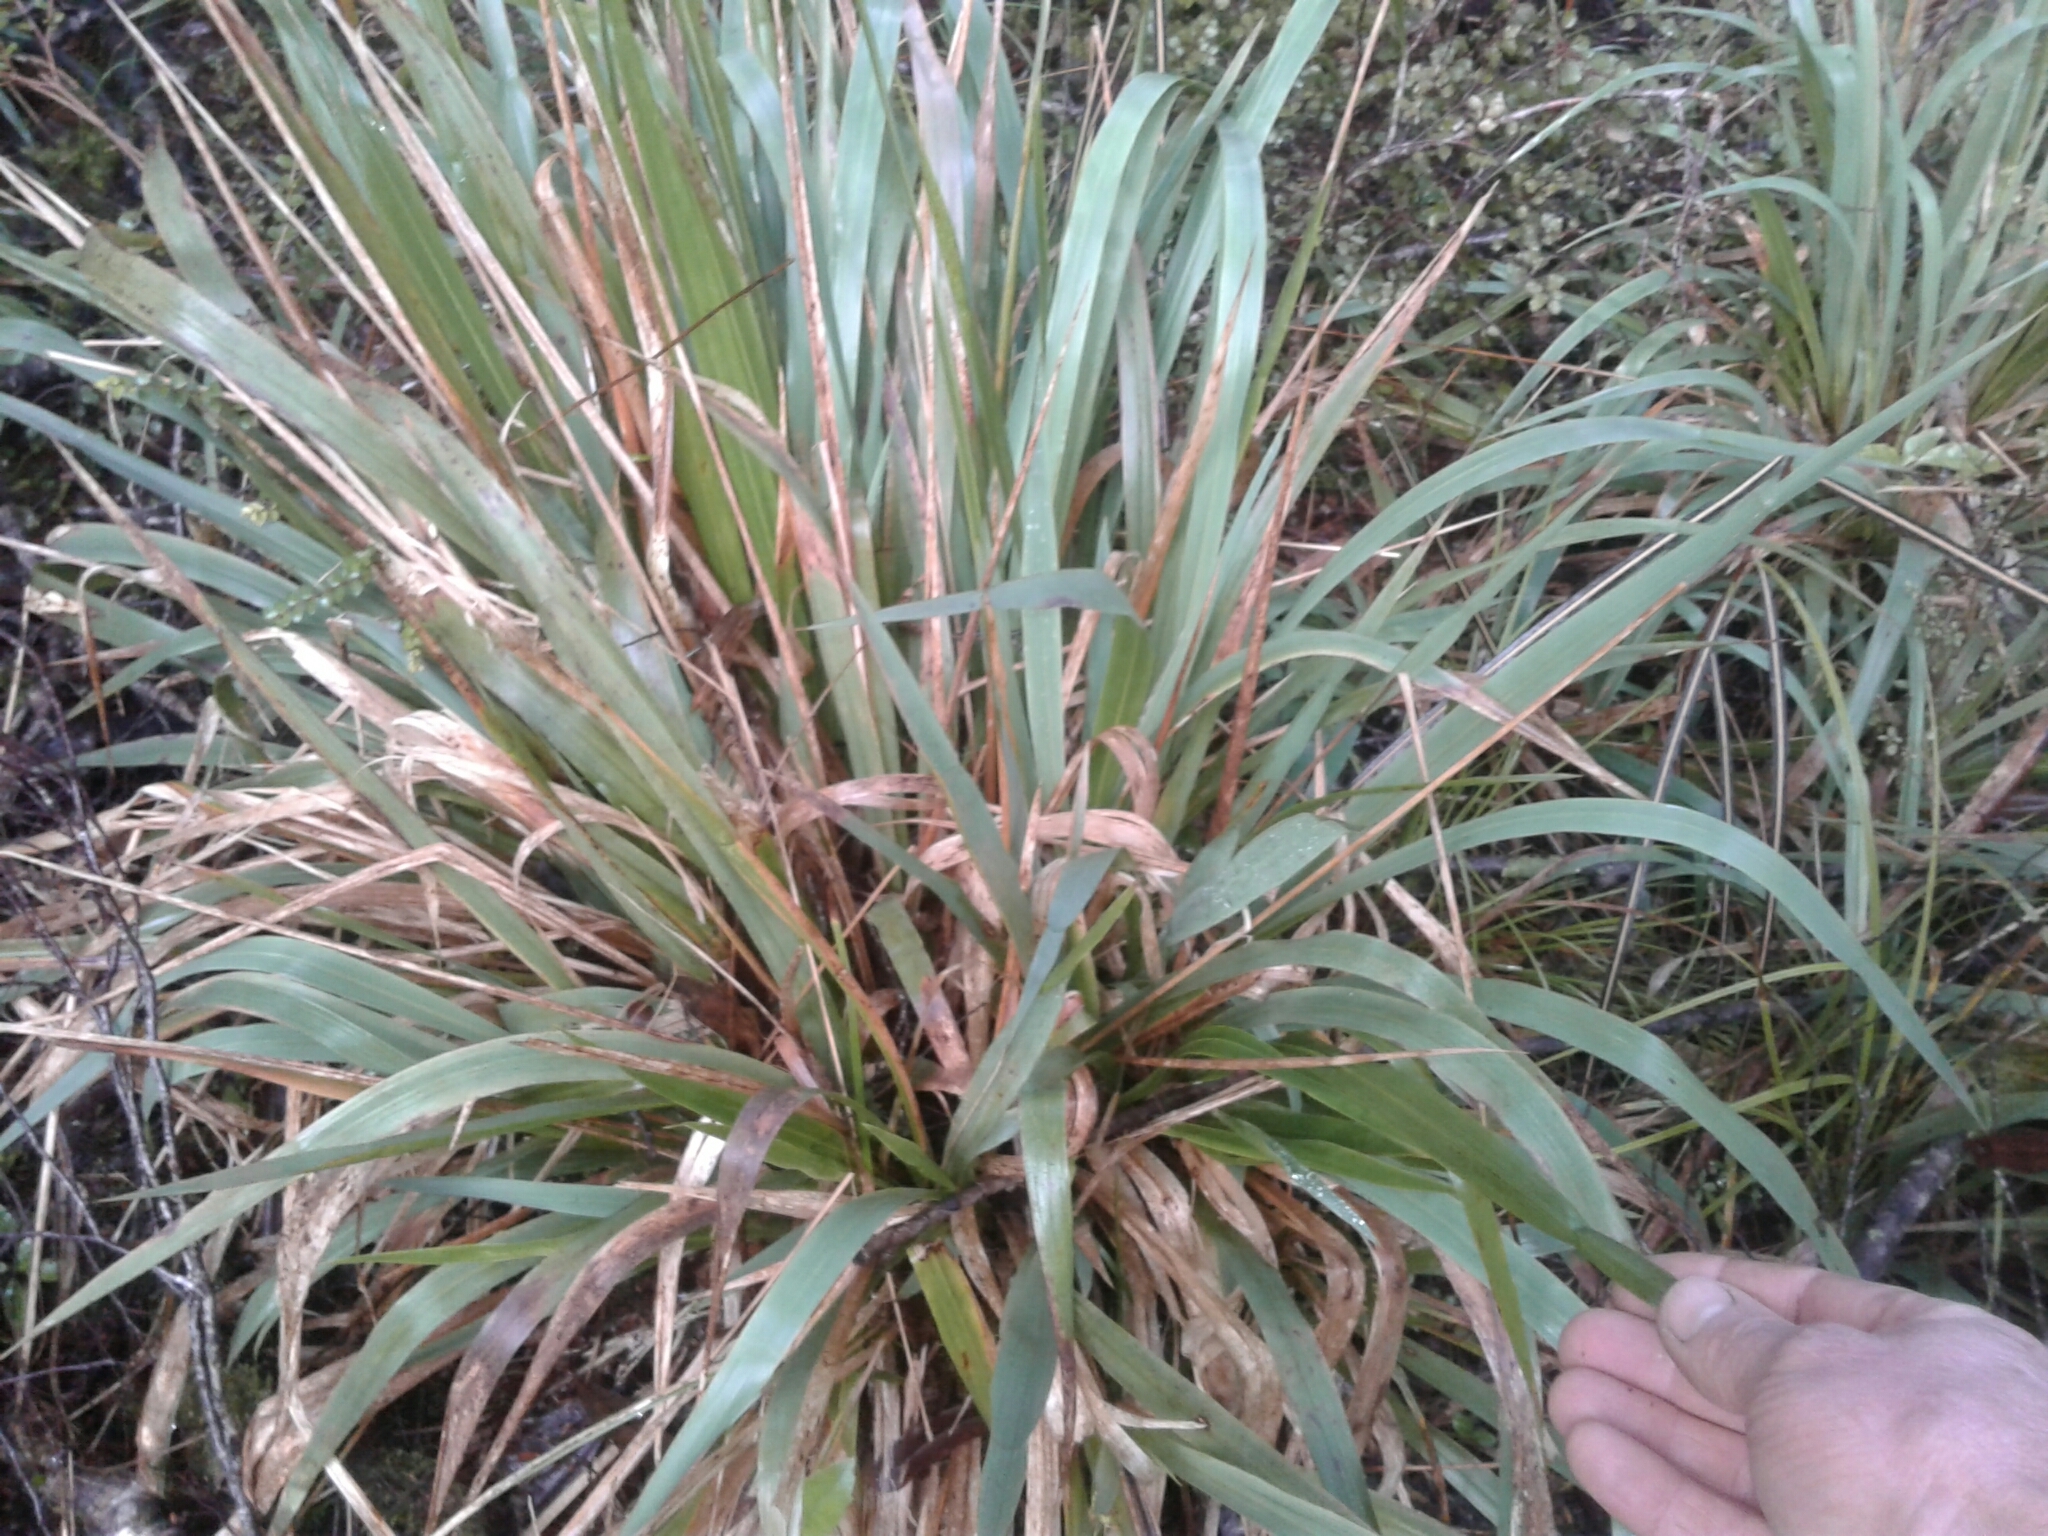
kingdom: Plantae
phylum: Tracheophyta
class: Liliopsida
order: Poales
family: Poaceae
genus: Ehrharta
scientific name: Ehrharta diplax
